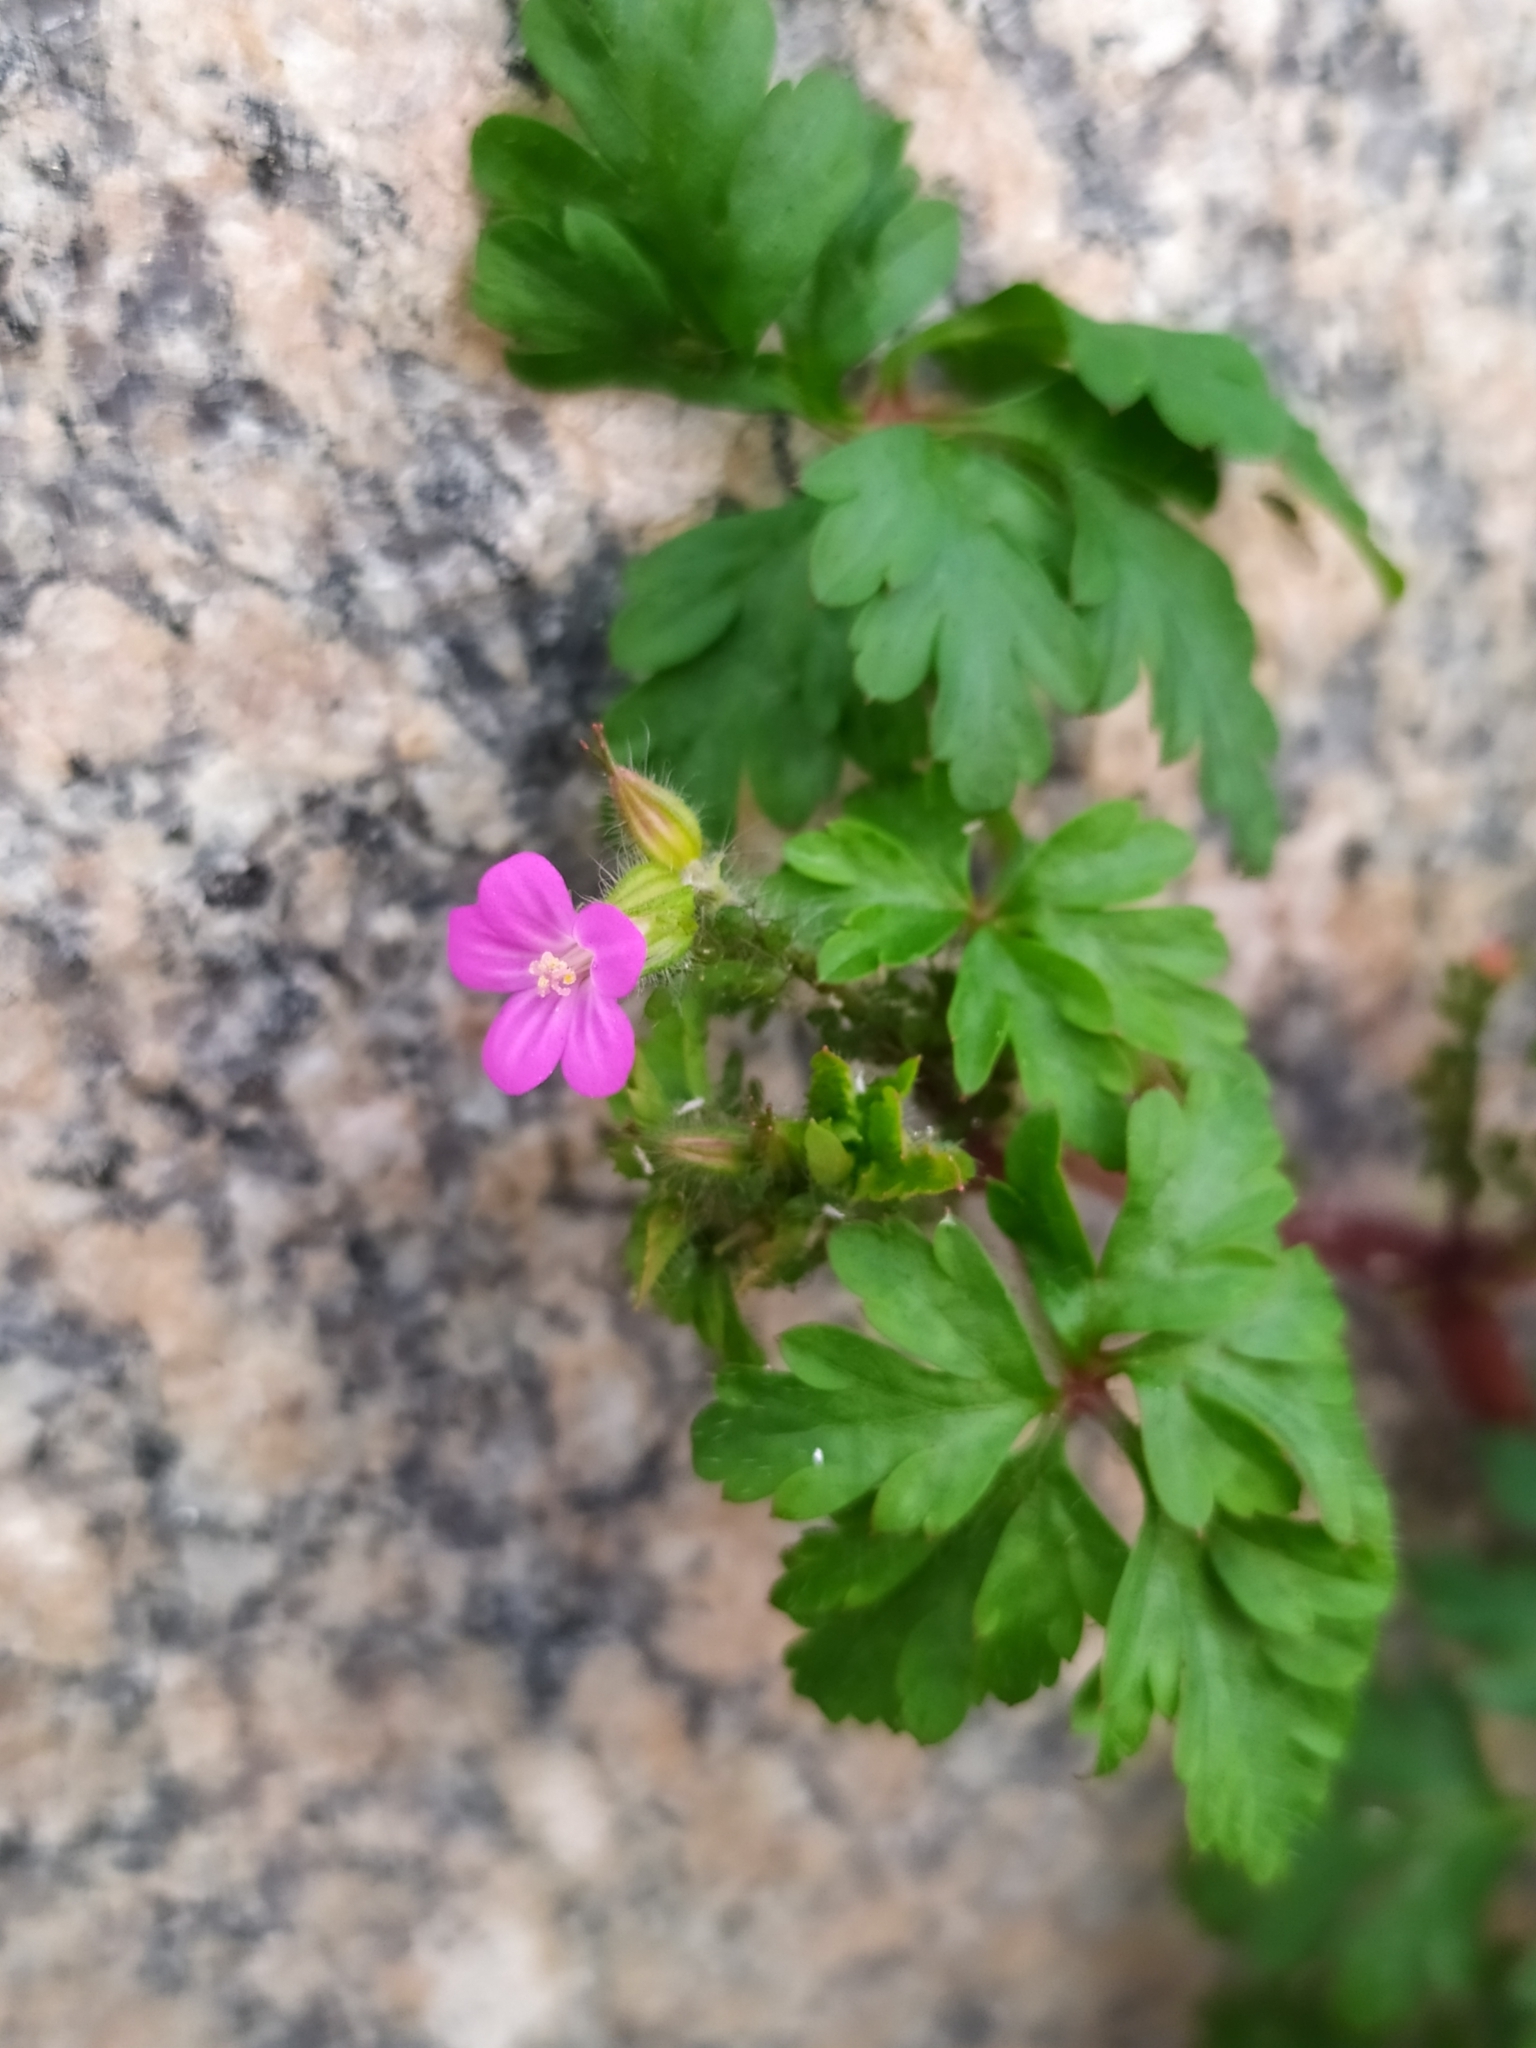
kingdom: Plantae
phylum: Tracheophyta
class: Magnoliopsida
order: Geraniales
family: Geraniaceae
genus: Geranium
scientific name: Geranium purpureum
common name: Little-robin
